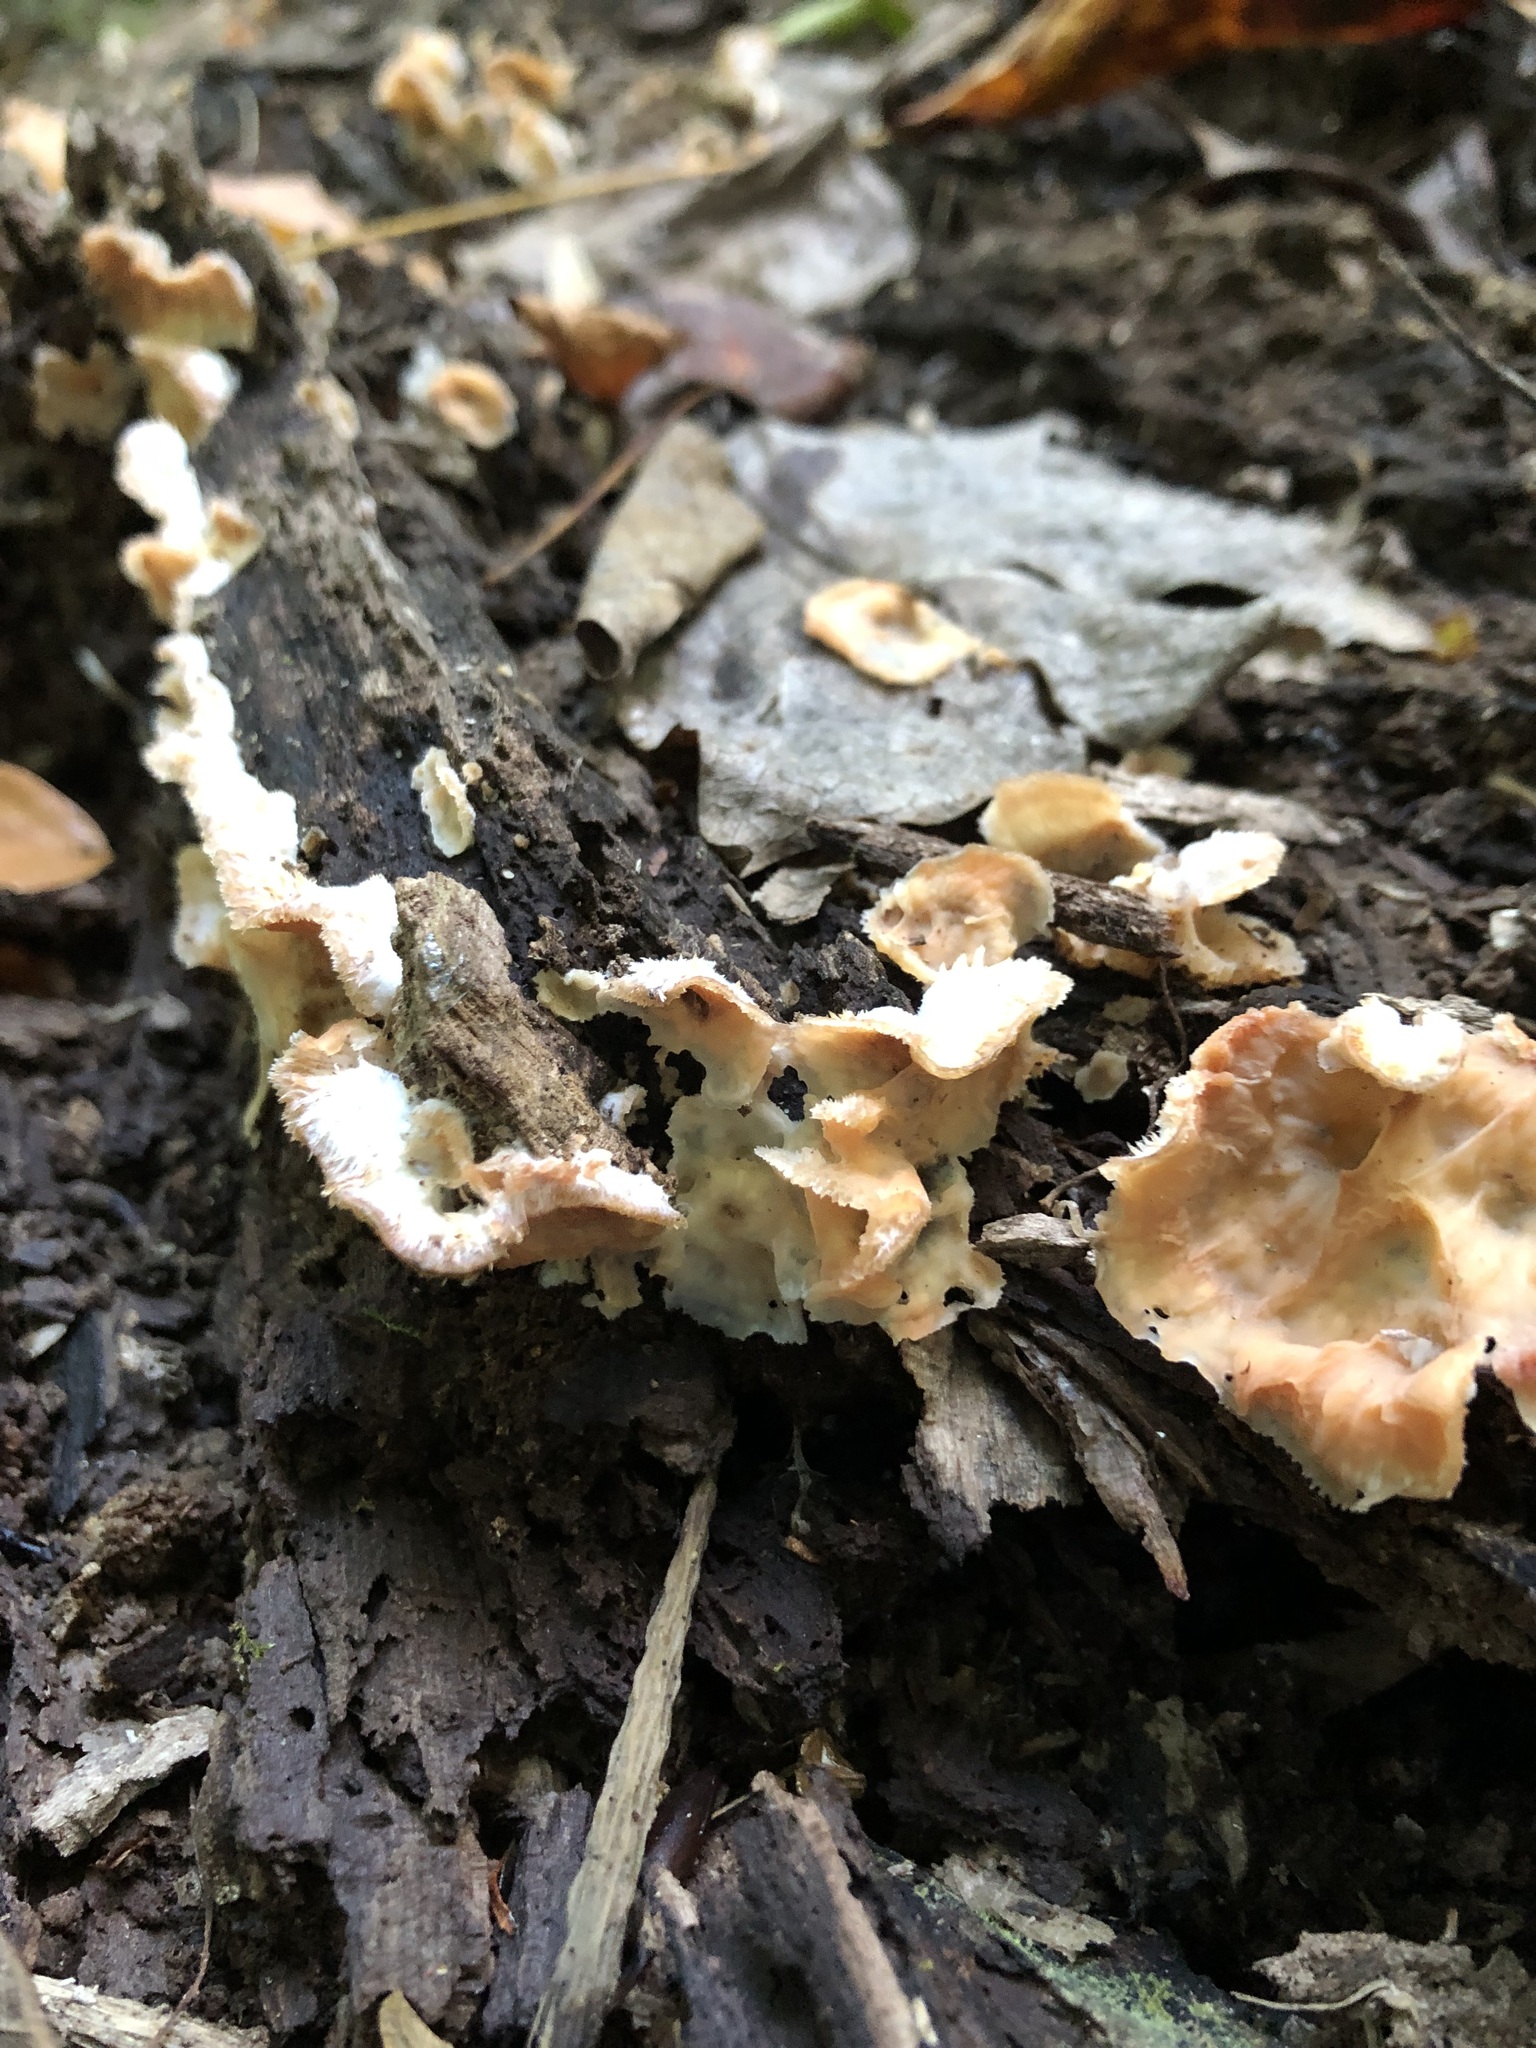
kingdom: Fungi
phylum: Basidiomycota
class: Agaricomycetes
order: Polyporales
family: Meruliaceae
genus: Phlebia
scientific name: Phlebia tremellosa
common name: Jelly rot
